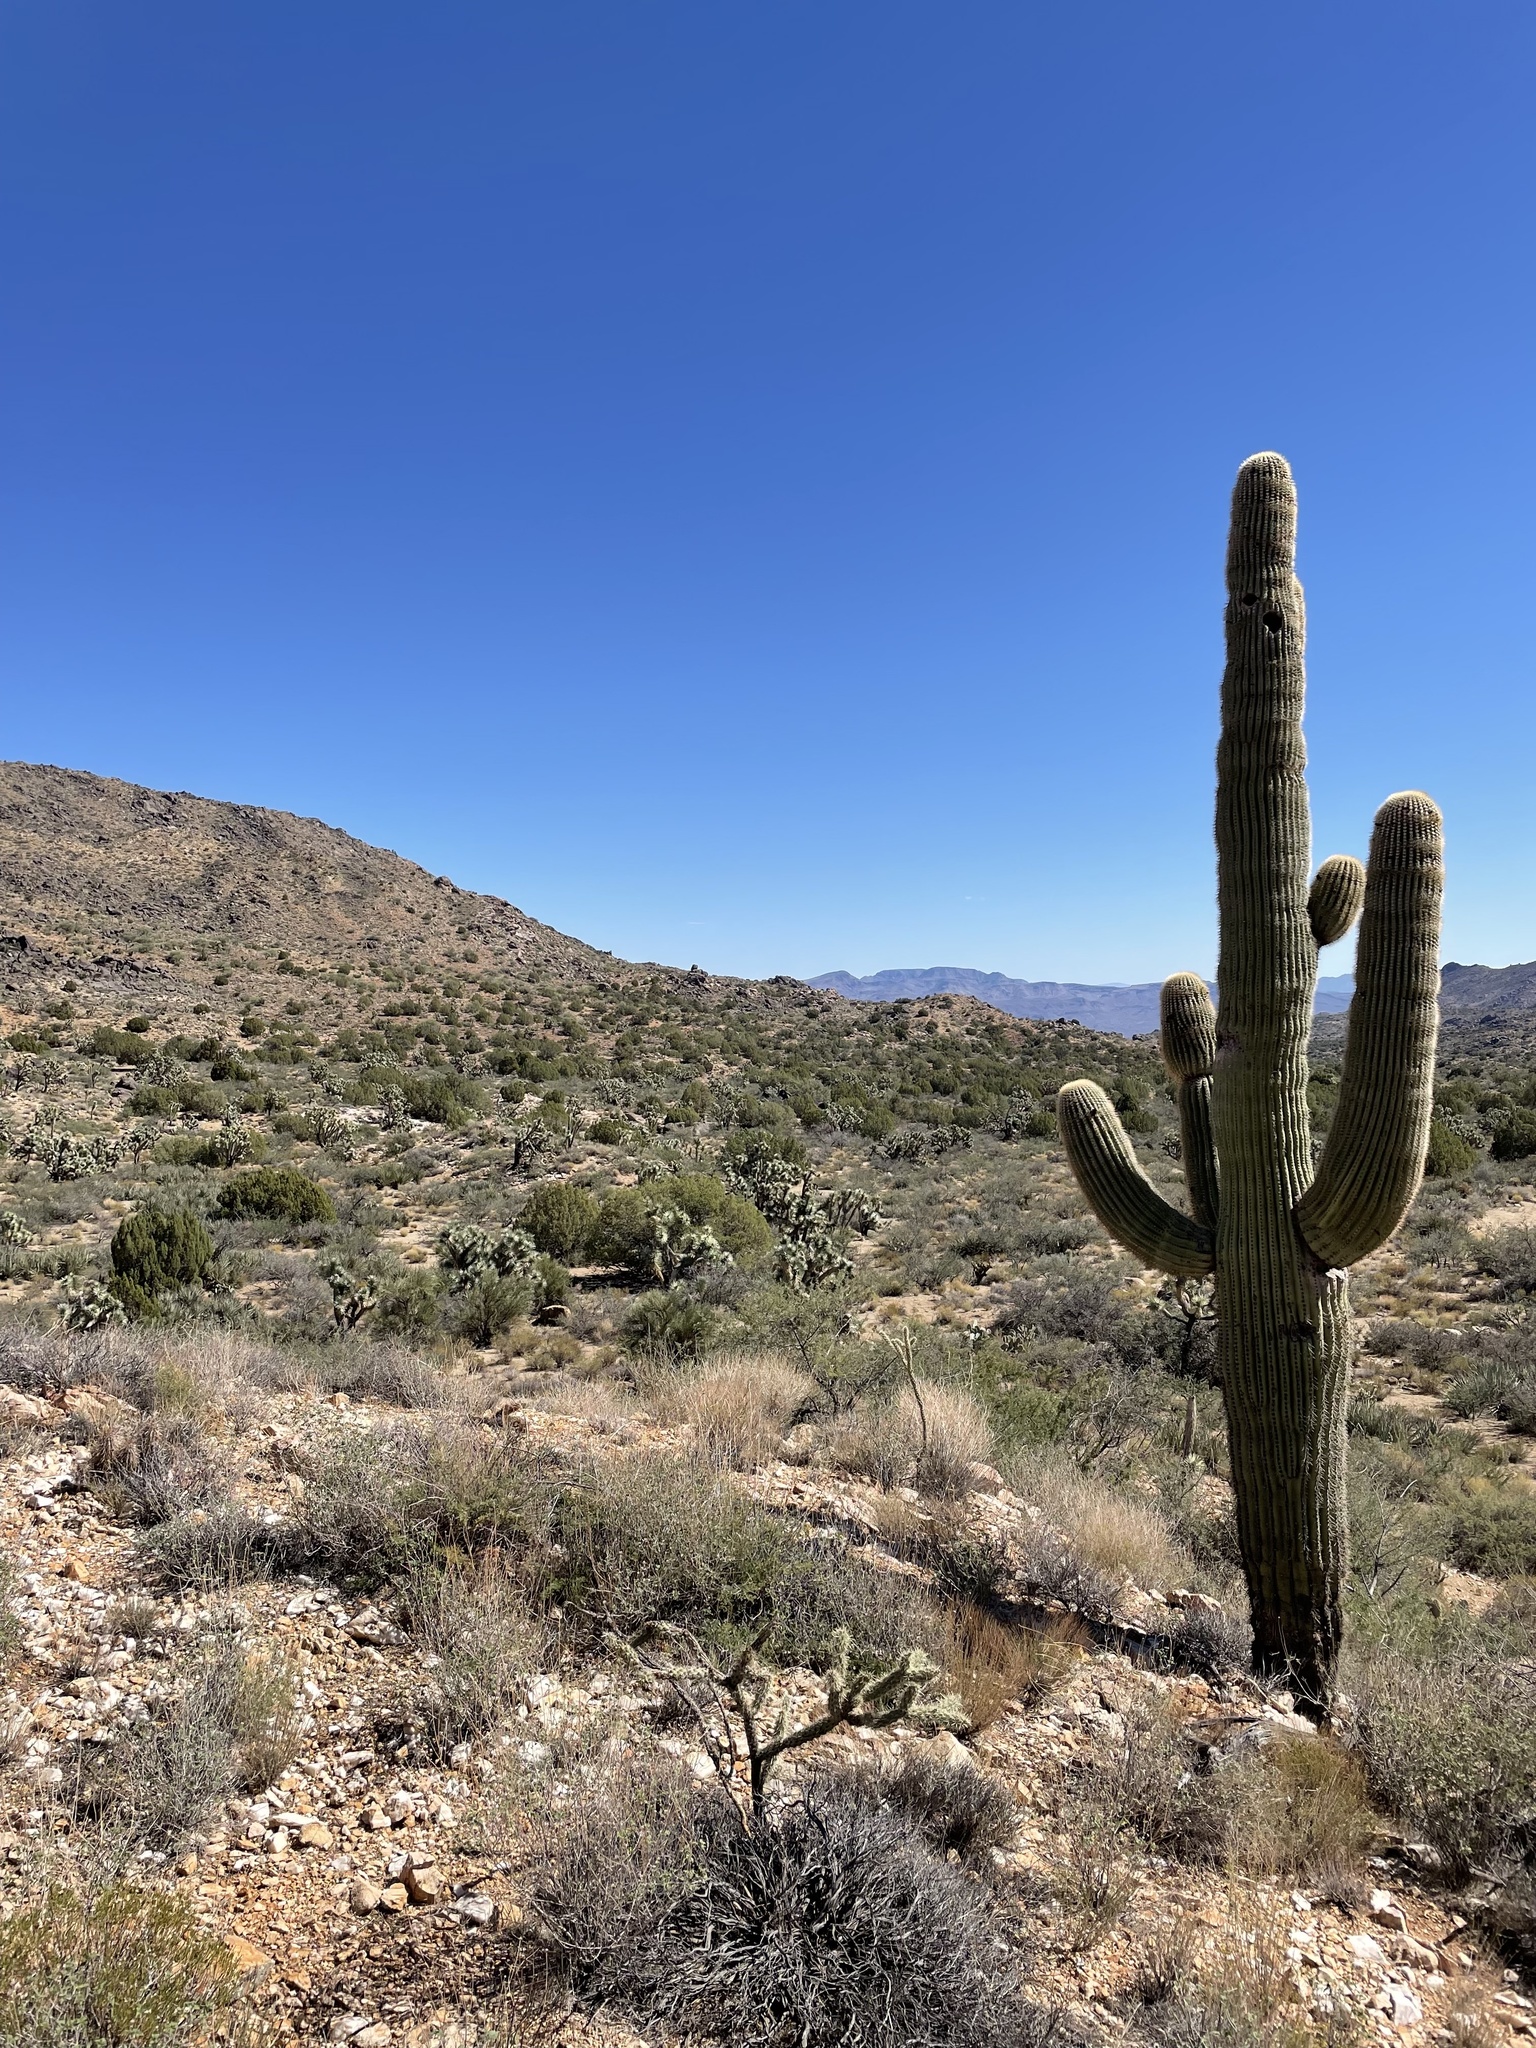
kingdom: Plantae
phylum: Tracheophyta
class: Magnoliopsida
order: Caryophyllales
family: Cactaceae
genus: Carnegiea
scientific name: Carnegiea gigantea
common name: Saguaro
